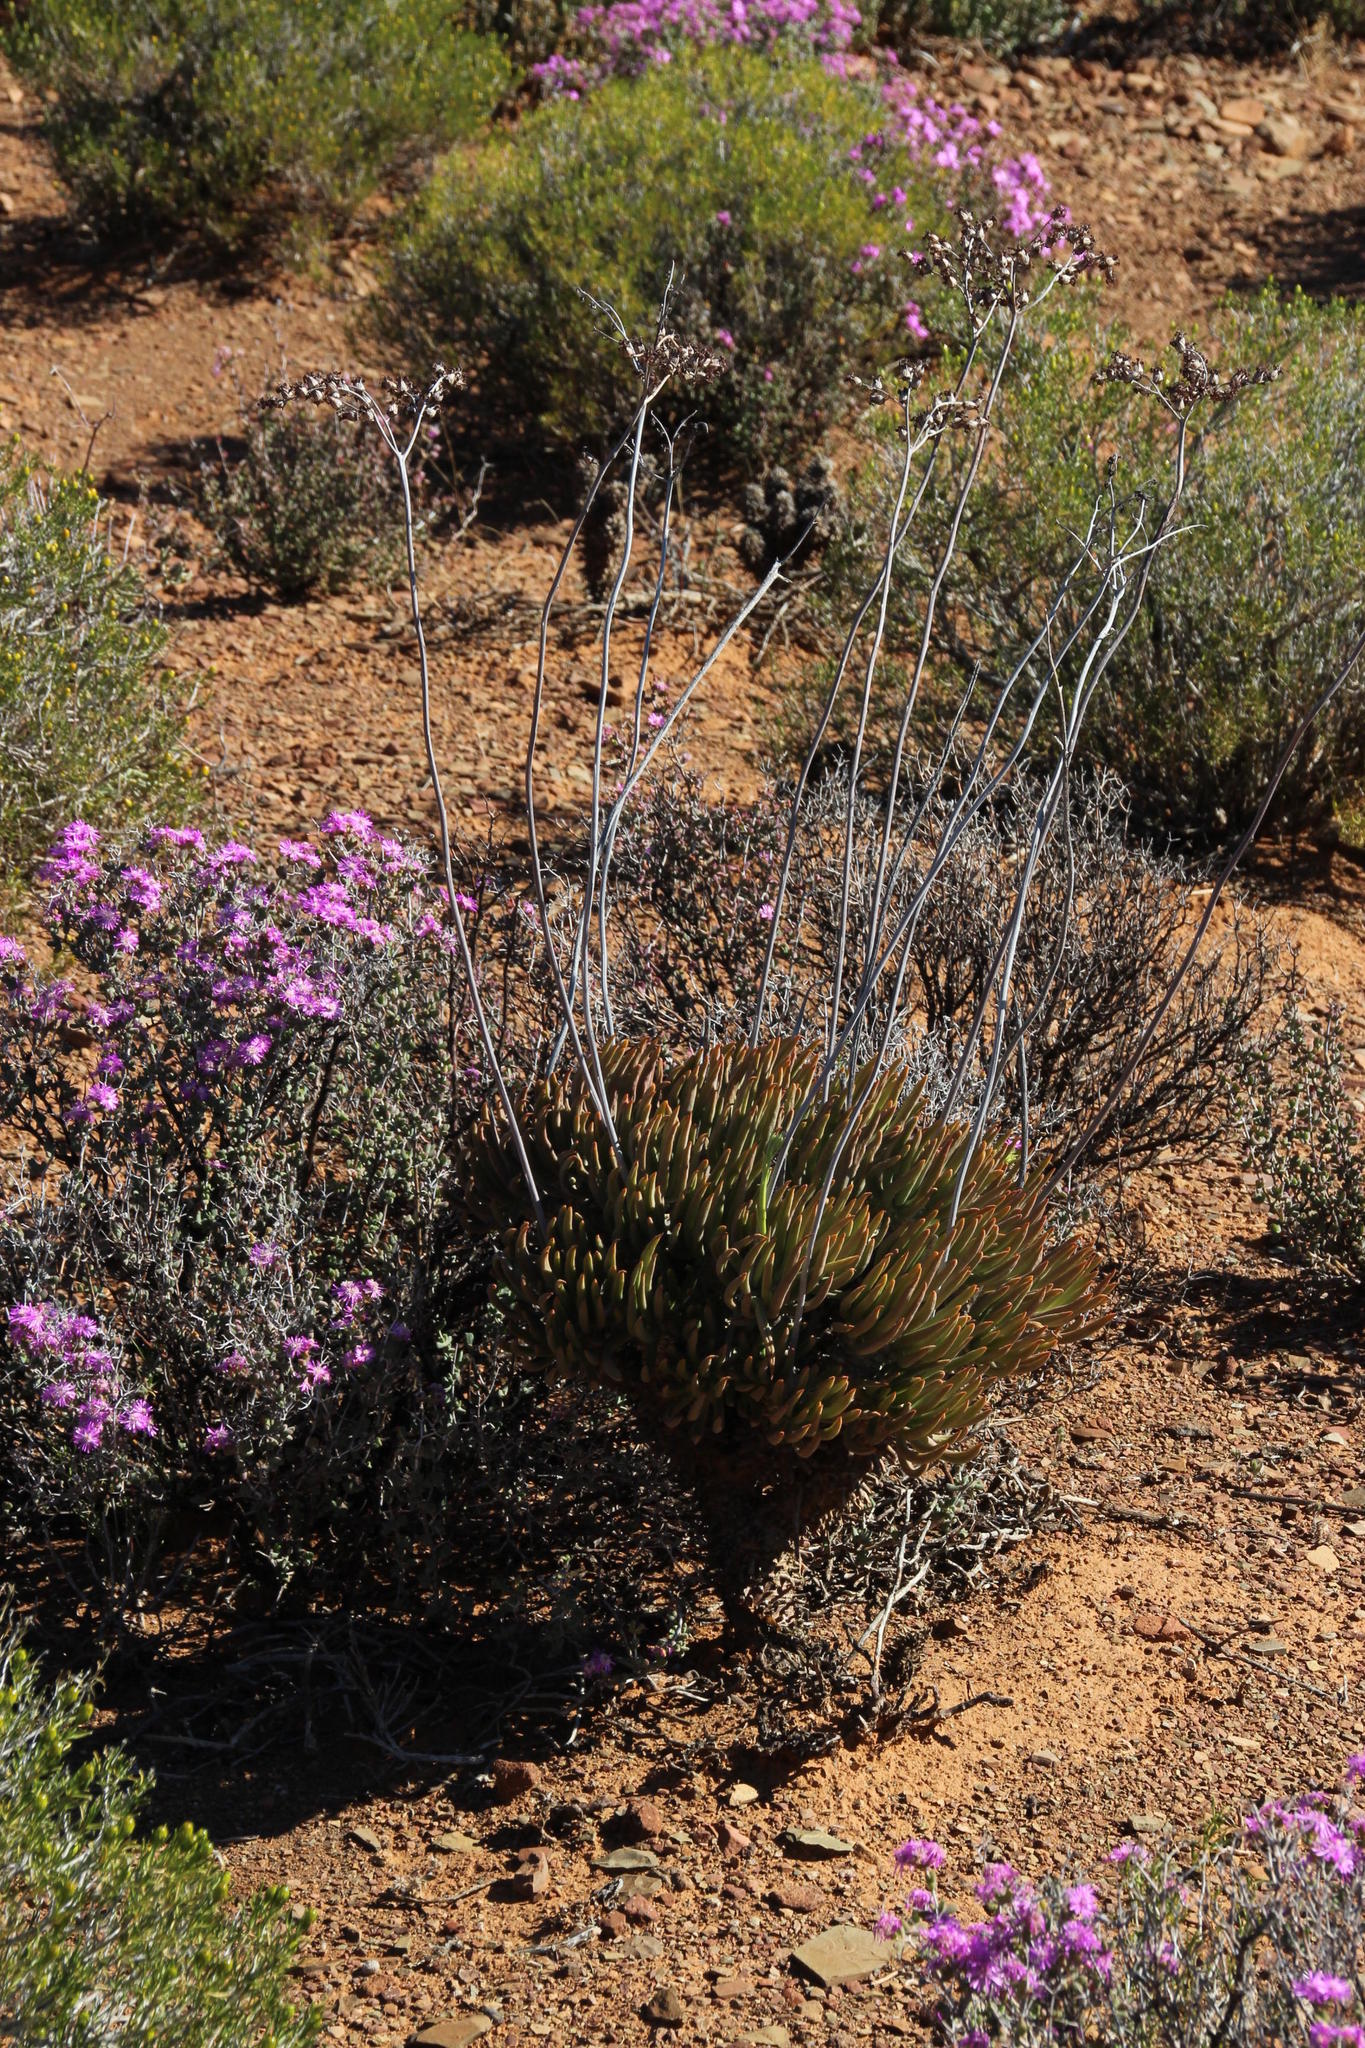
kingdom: Plantae
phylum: Tracheophyta
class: Magnoliopsida
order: Saxifragales
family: Crassulaceae
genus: Tylecodon
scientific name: Tylecodon wallichii
